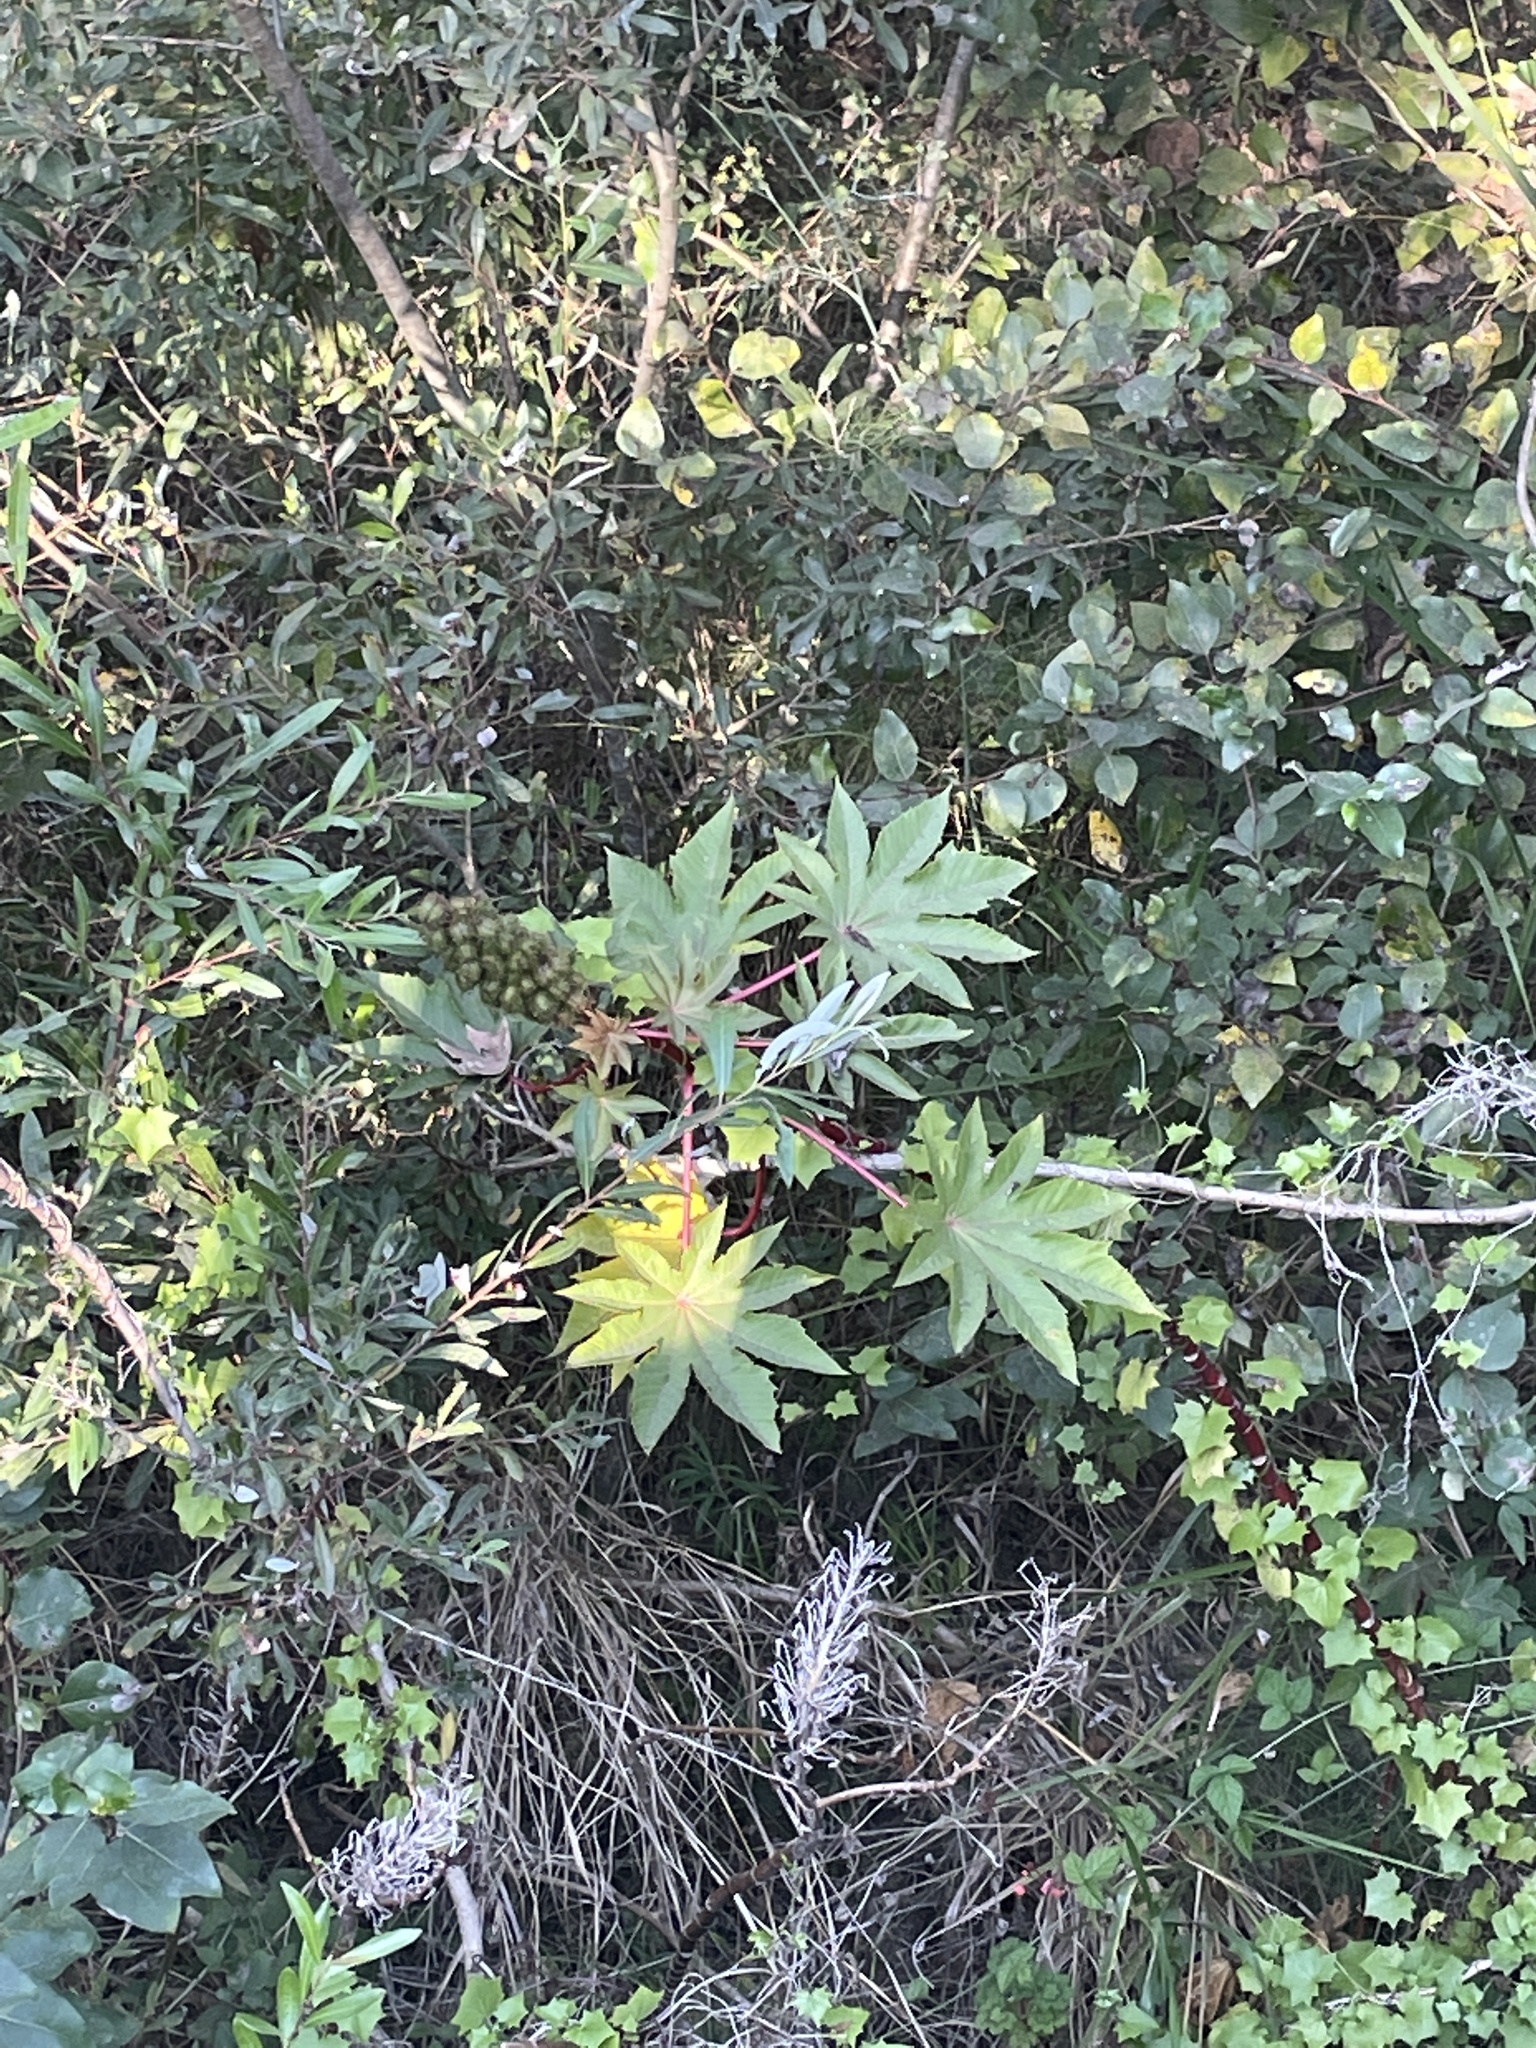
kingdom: Plantae
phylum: Tracheophyta
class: Magnoliopsida
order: Malpighiales
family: Euphorbiaceae
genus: Ricinus
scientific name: Ricinus communis
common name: Castor-oil-plant
